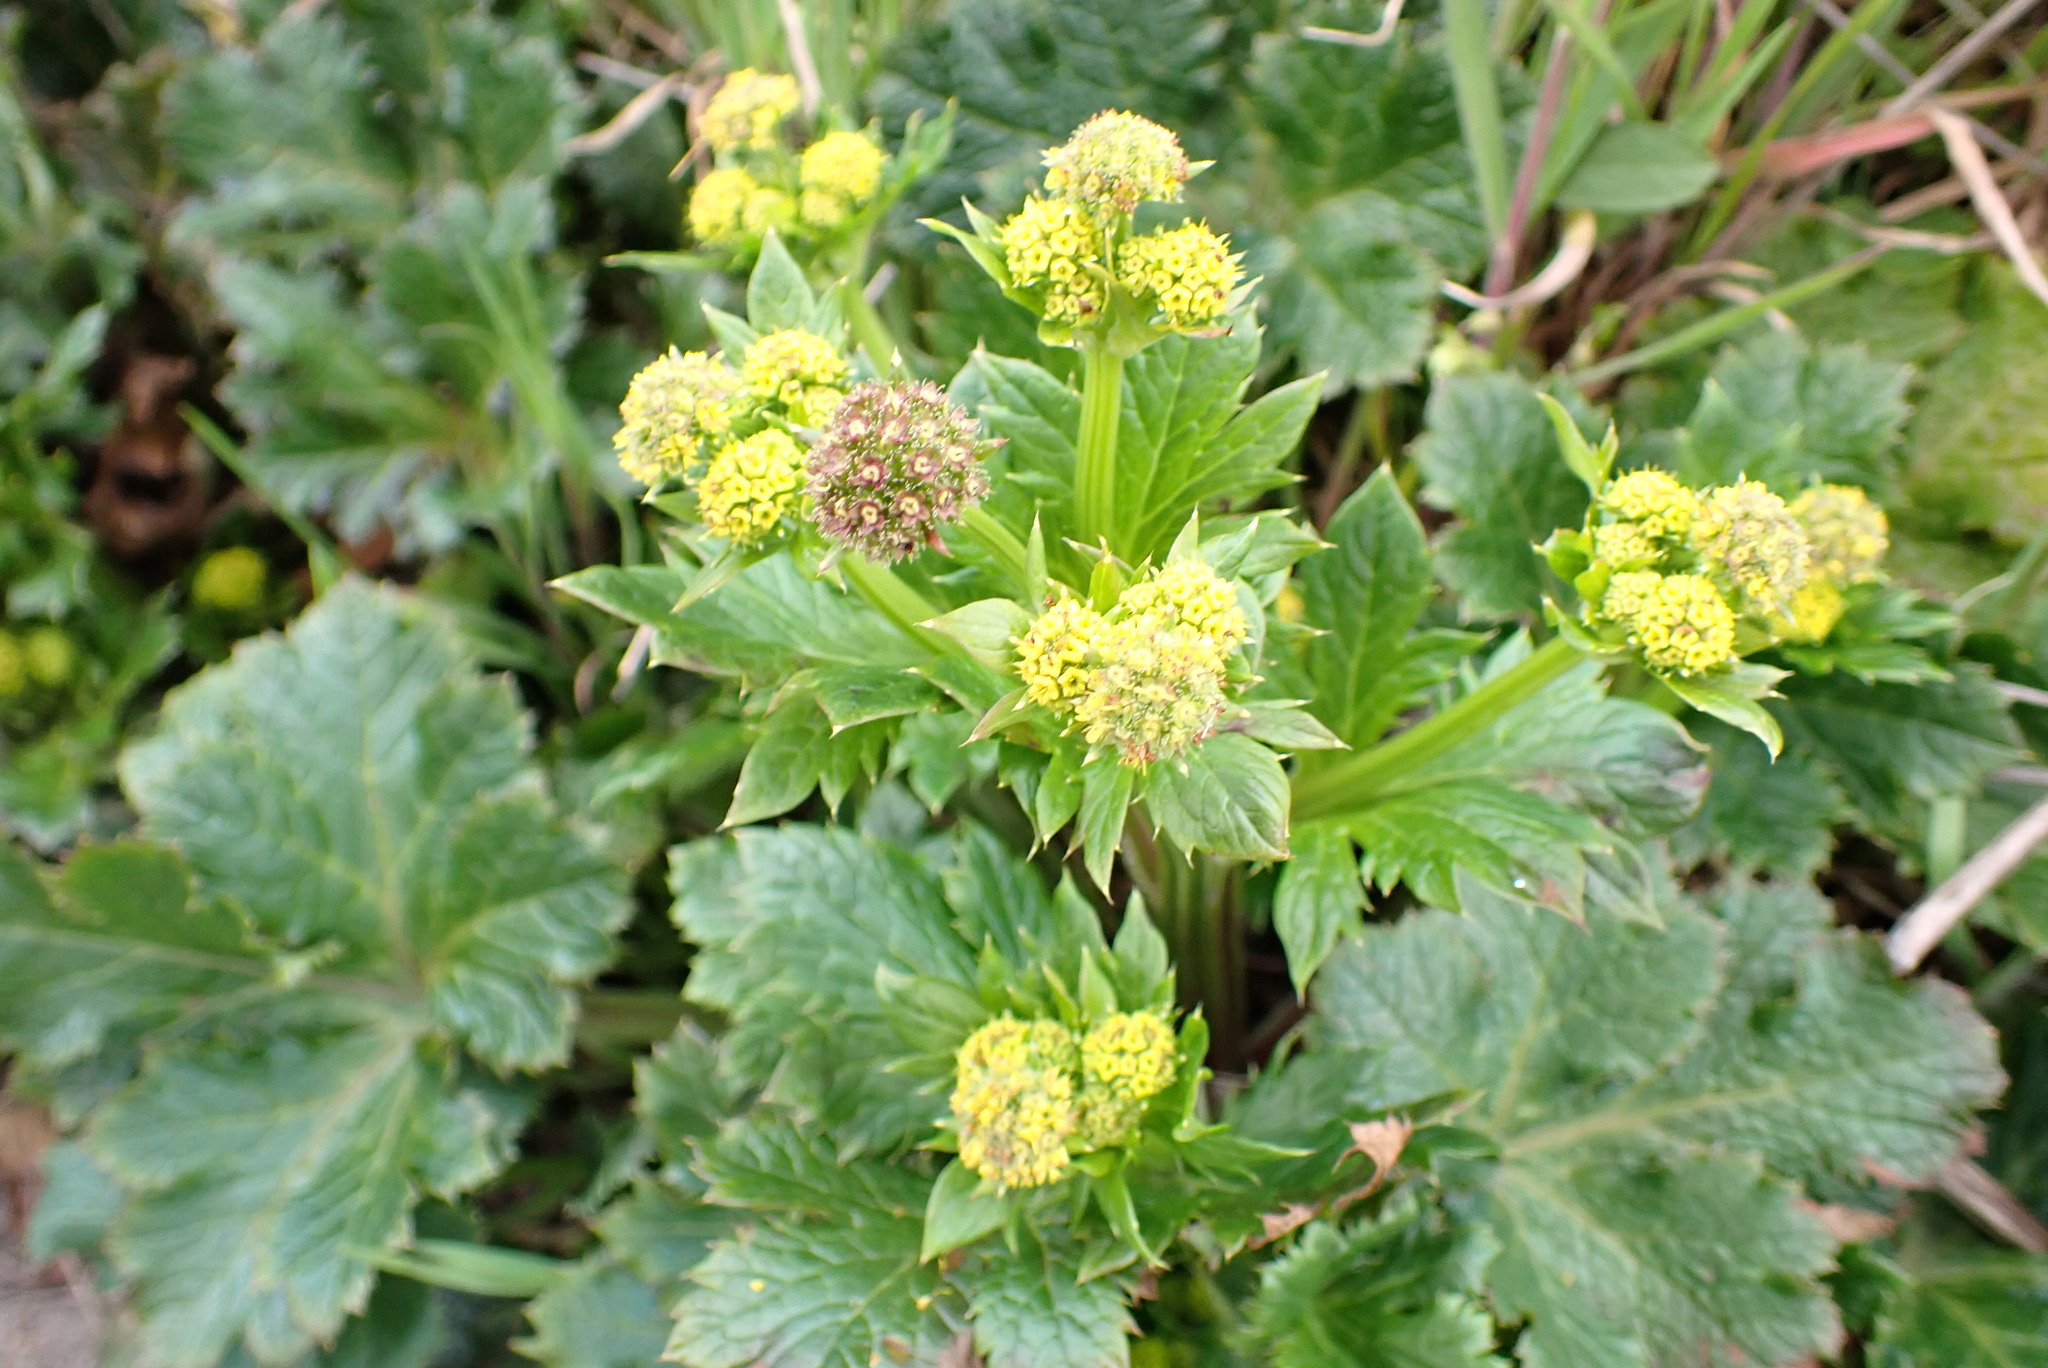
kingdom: Plantae
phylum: Tracheophyta
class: Magnoliopsida
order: Apiales
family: Apiaceae
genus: Sanicula
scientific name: Sanicula crassicaulis
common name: Western snakeroot
